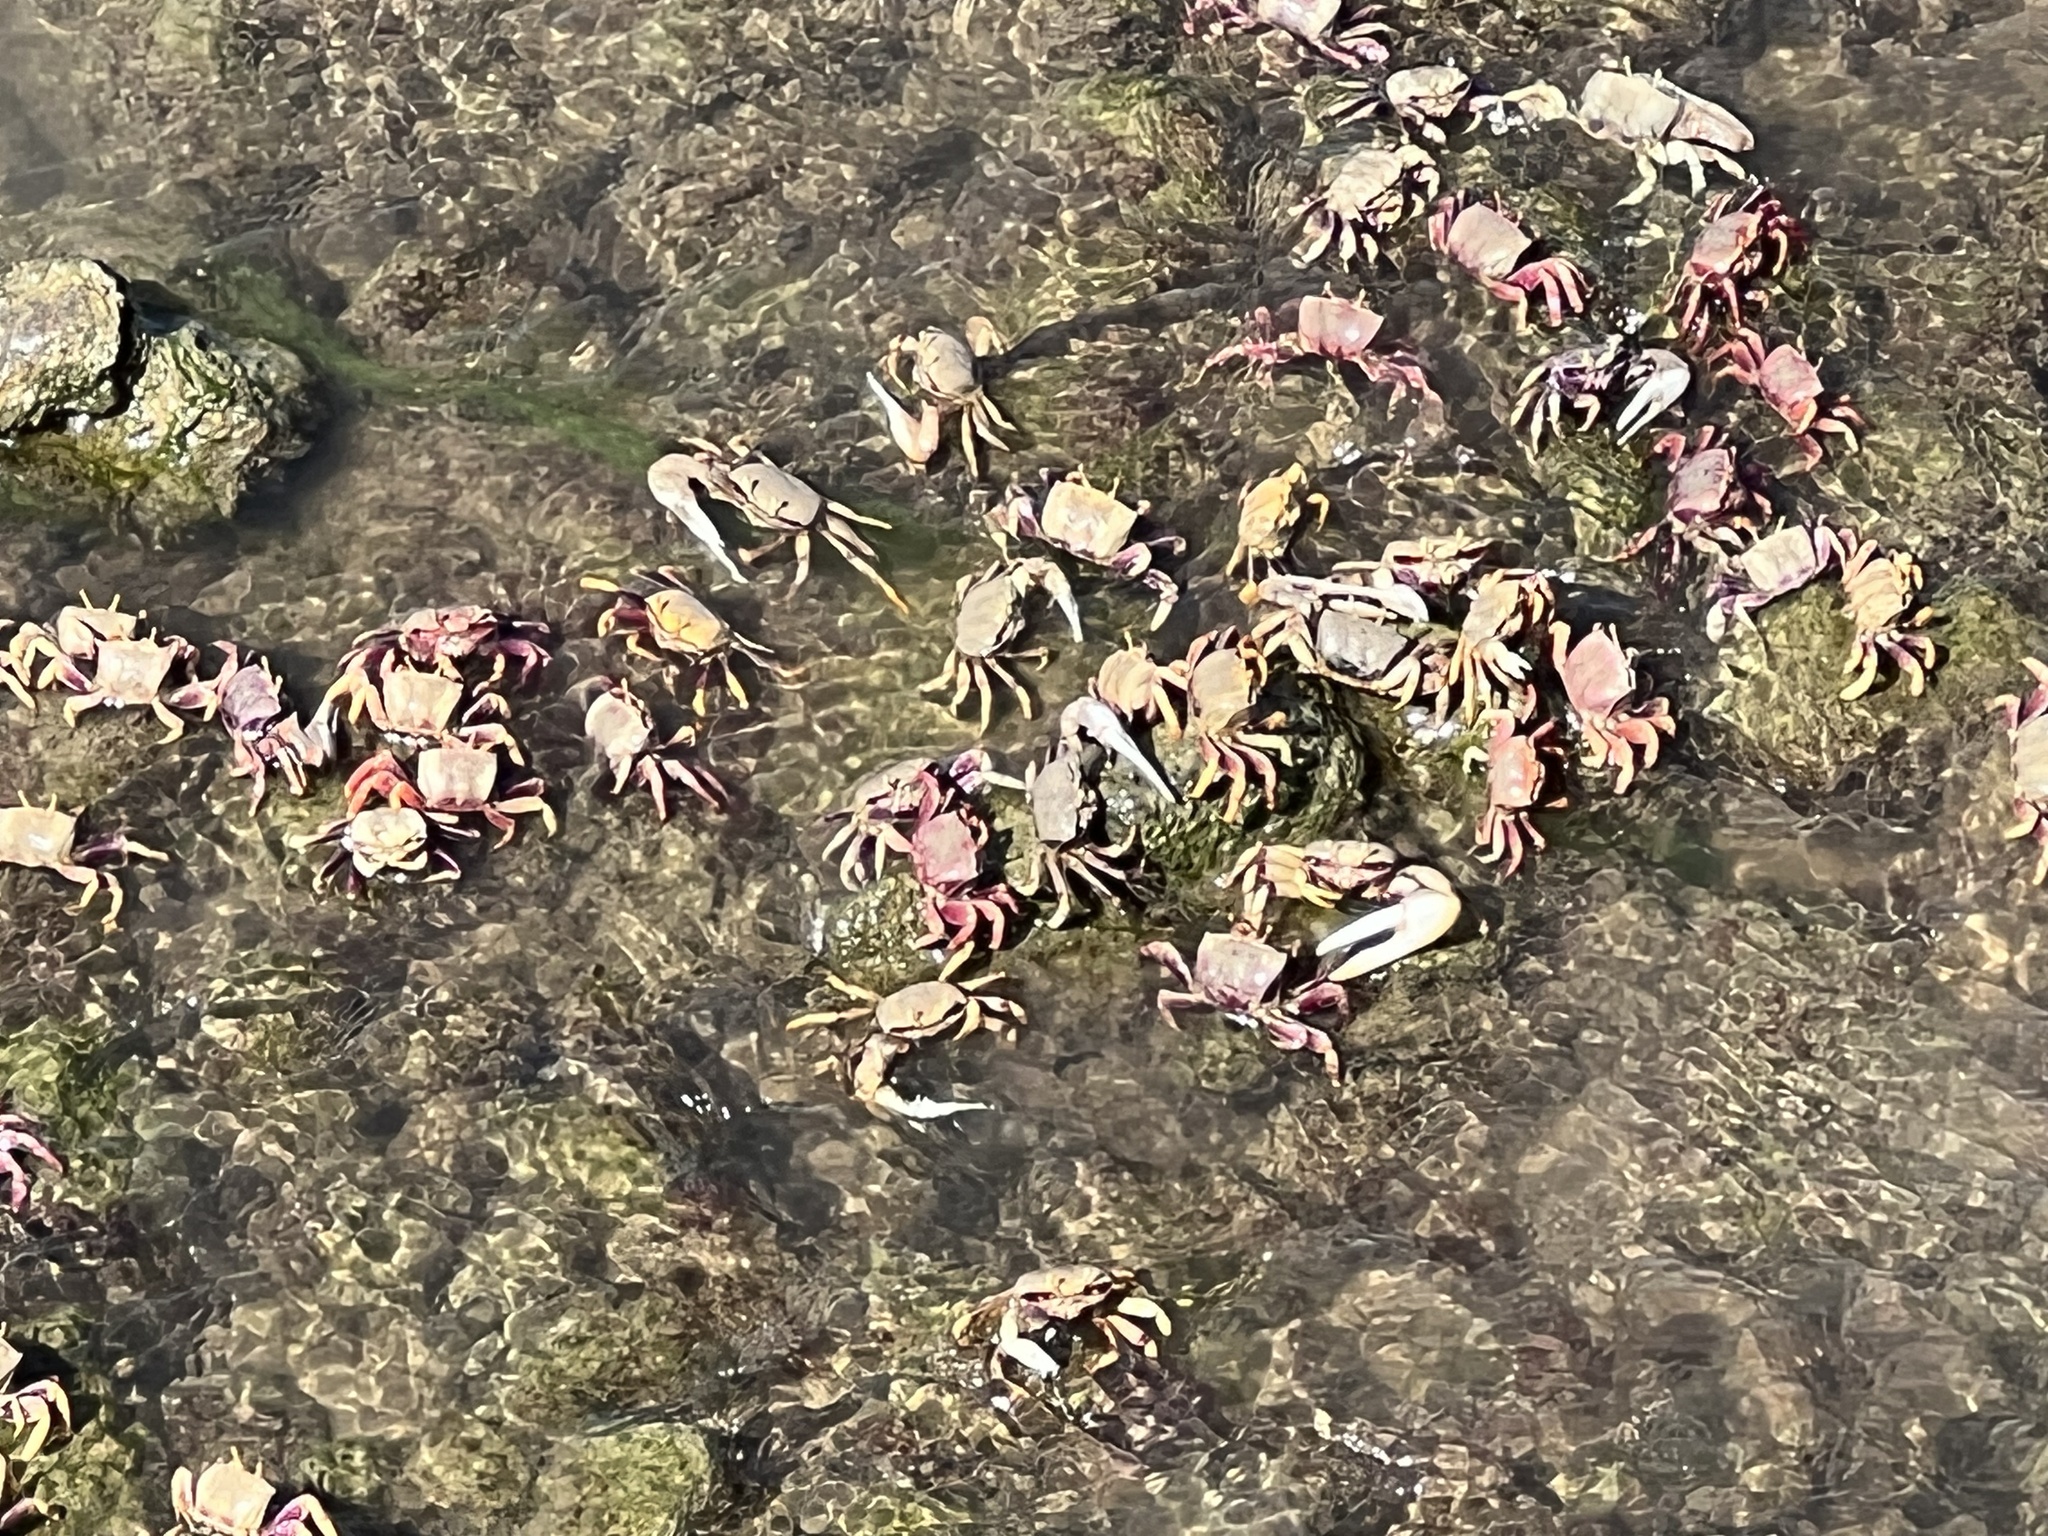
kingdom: Animalia
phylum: Arthropoda
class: Malacostraca
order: Decapoda
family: Ocypodidae
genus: Afruca
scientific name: Afruca tangeri
